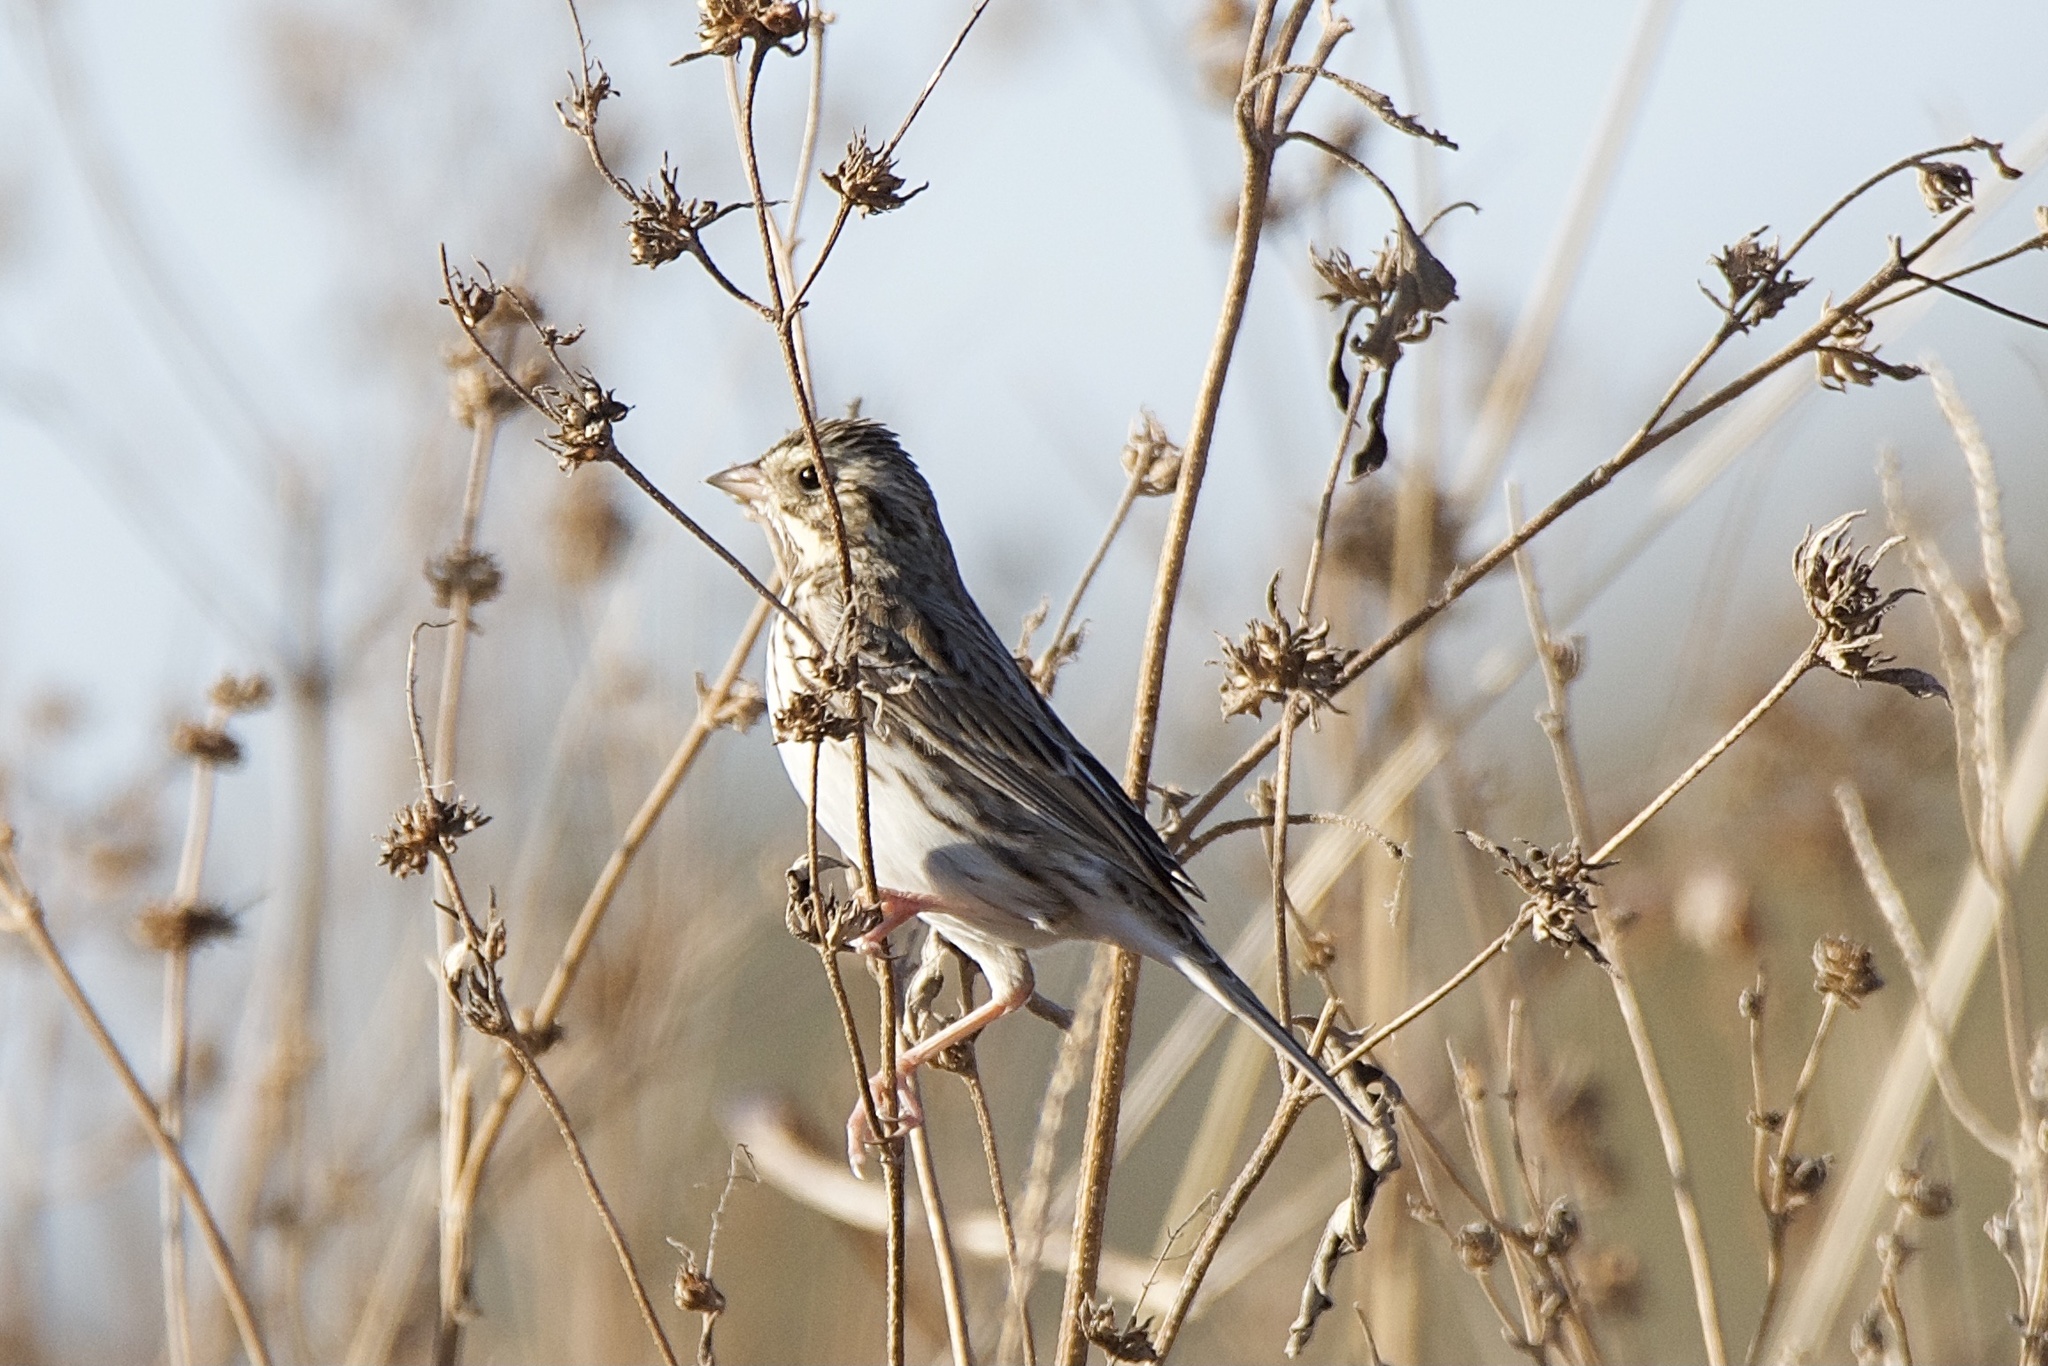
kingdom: Animalia
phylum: Chordata
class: Aves
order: Passeriformes
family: Passerellidae
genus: Passerculus
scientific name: Passerculus sandwichensis
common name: Savannah sparrow
